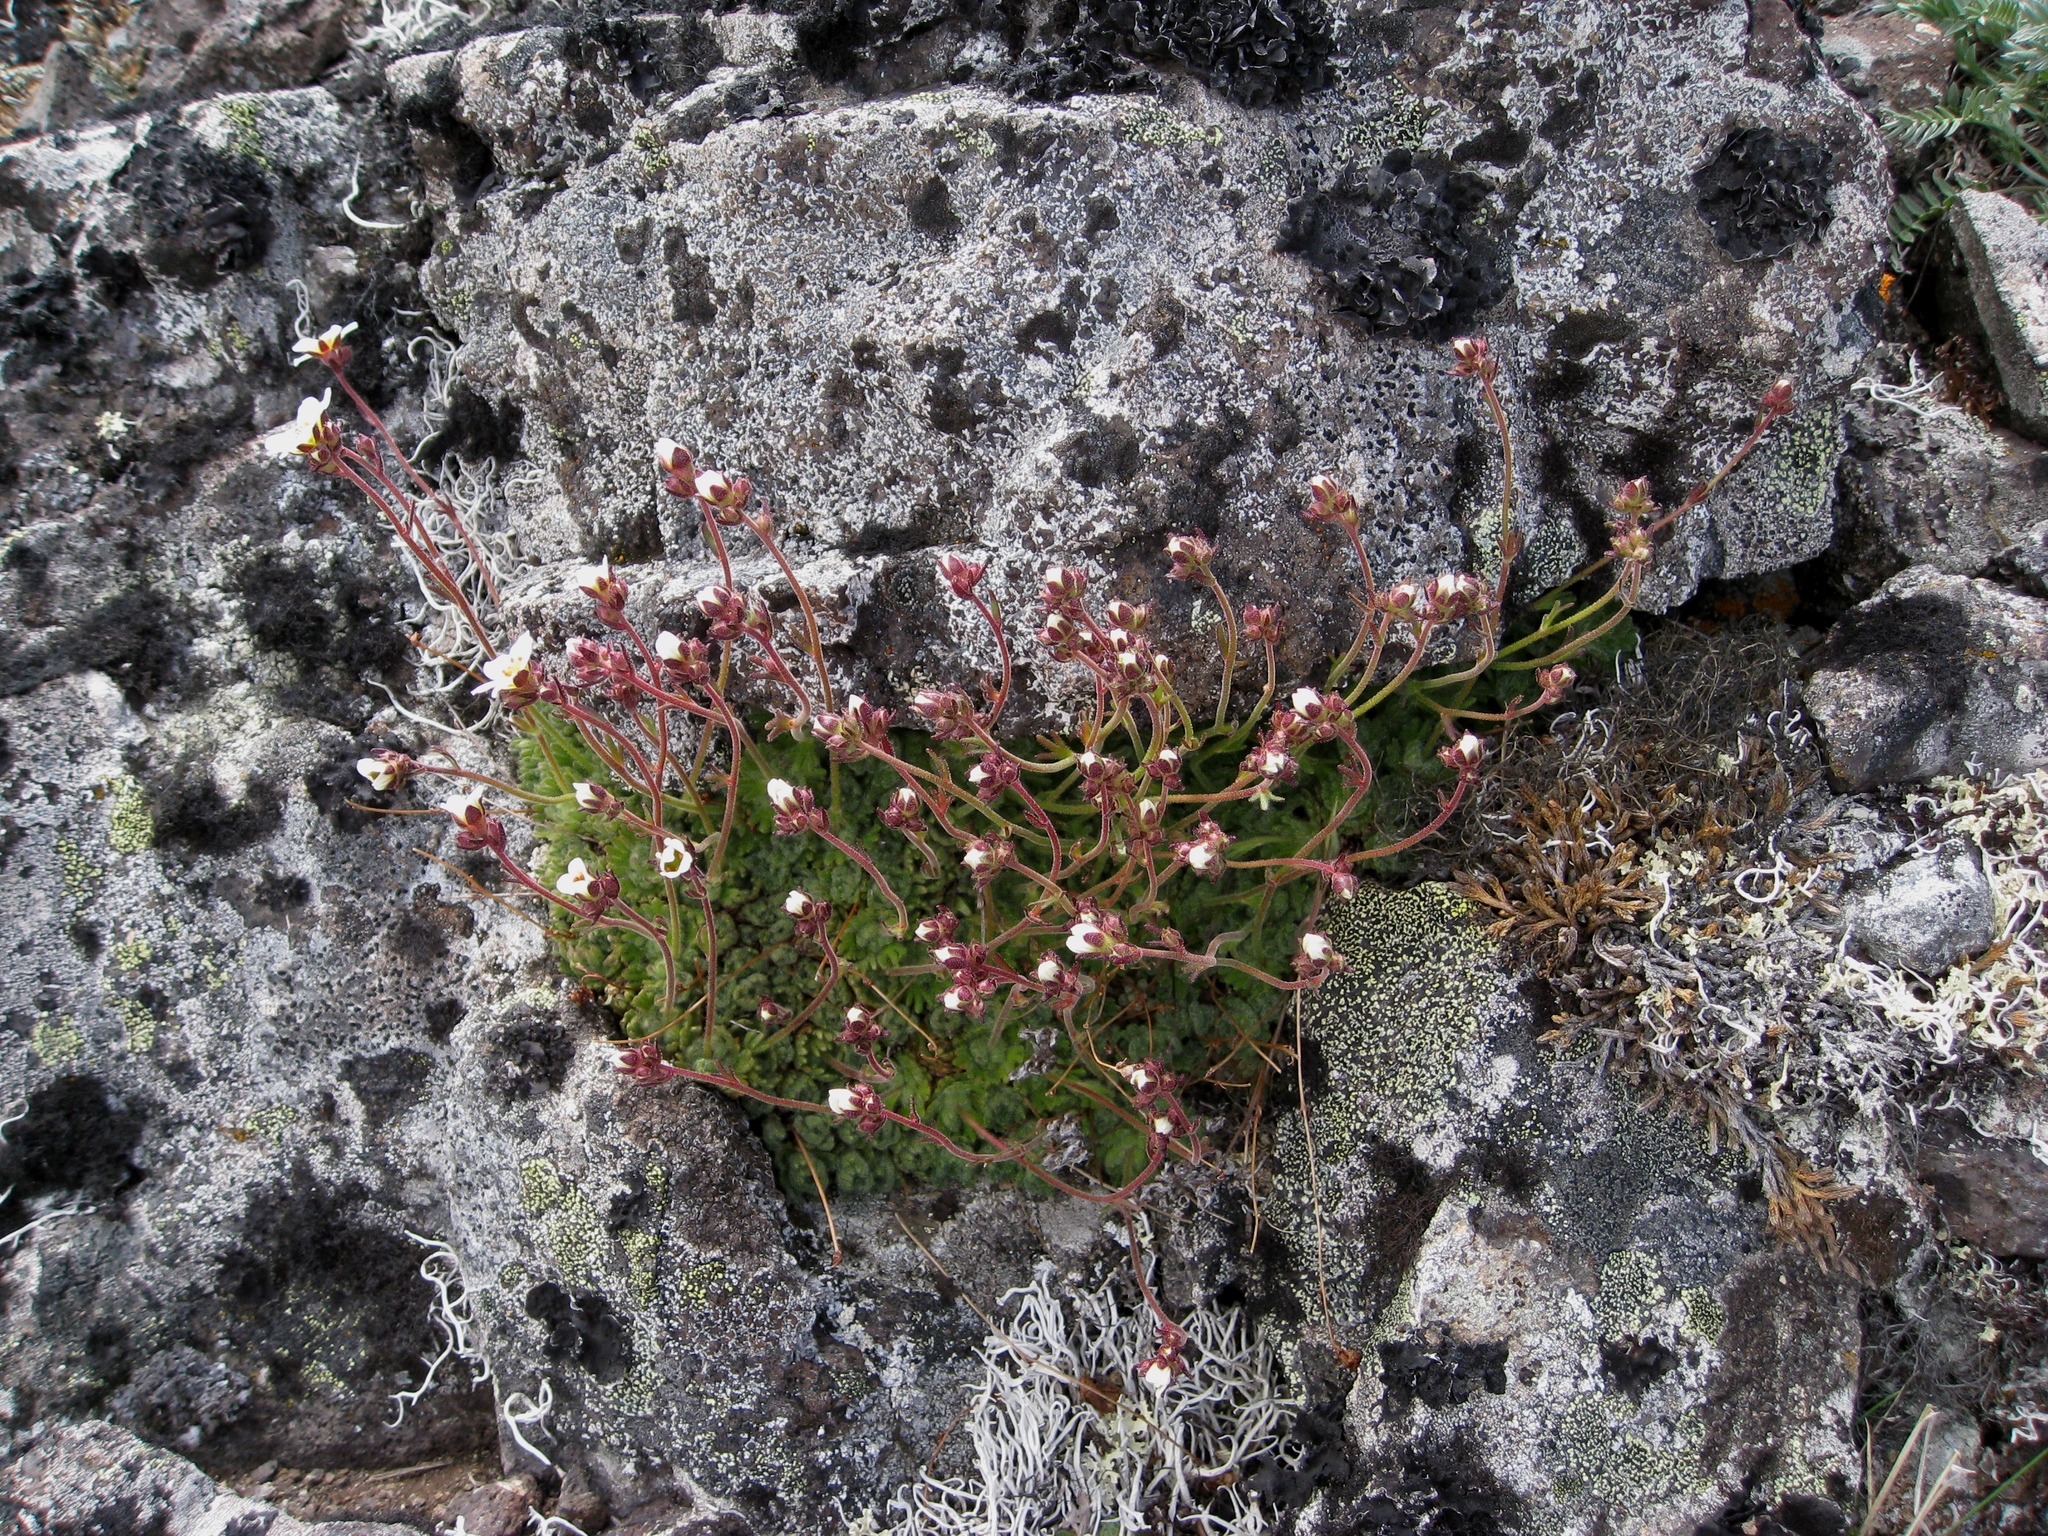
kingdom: Plantae
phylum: Tracheophyta
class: Magnoliopsida
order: Saxifragales
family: Saxifragaceae
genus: Saxifraga
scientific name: Saxifraga cespitosa
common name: Tufted saxifrage
